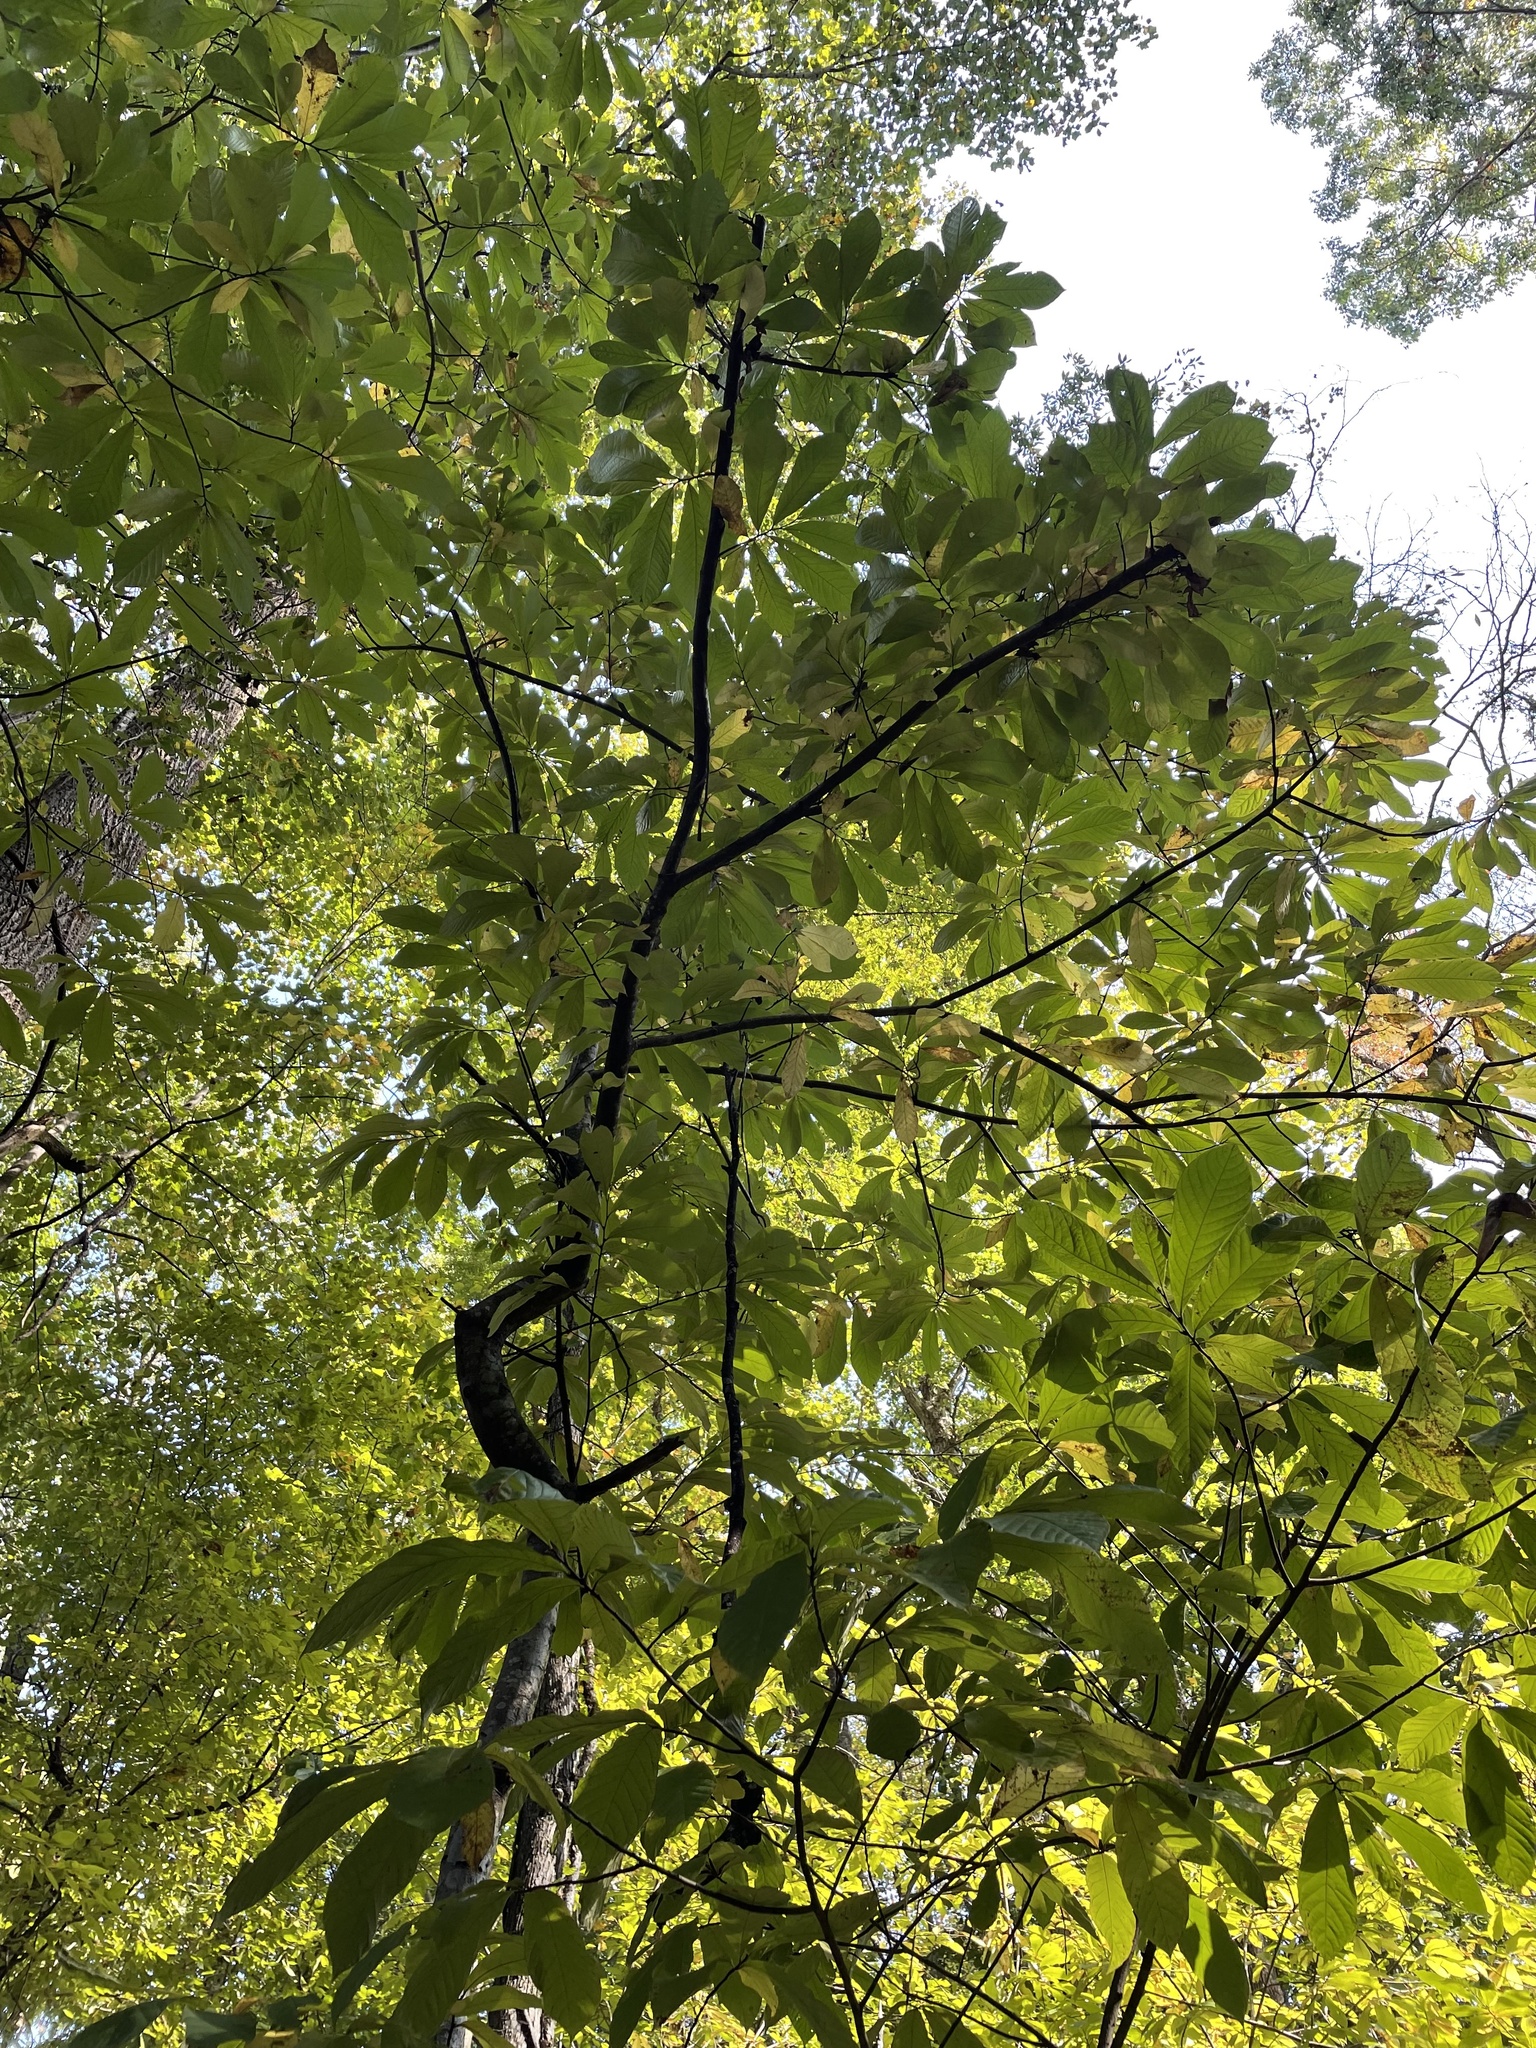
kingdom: Plantae
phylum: Tracheophyta
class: Magnoliopsida
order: Magnoliales
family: Annonaceae
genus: Asimina
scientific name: Asimina triloba
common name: Dog-banana
